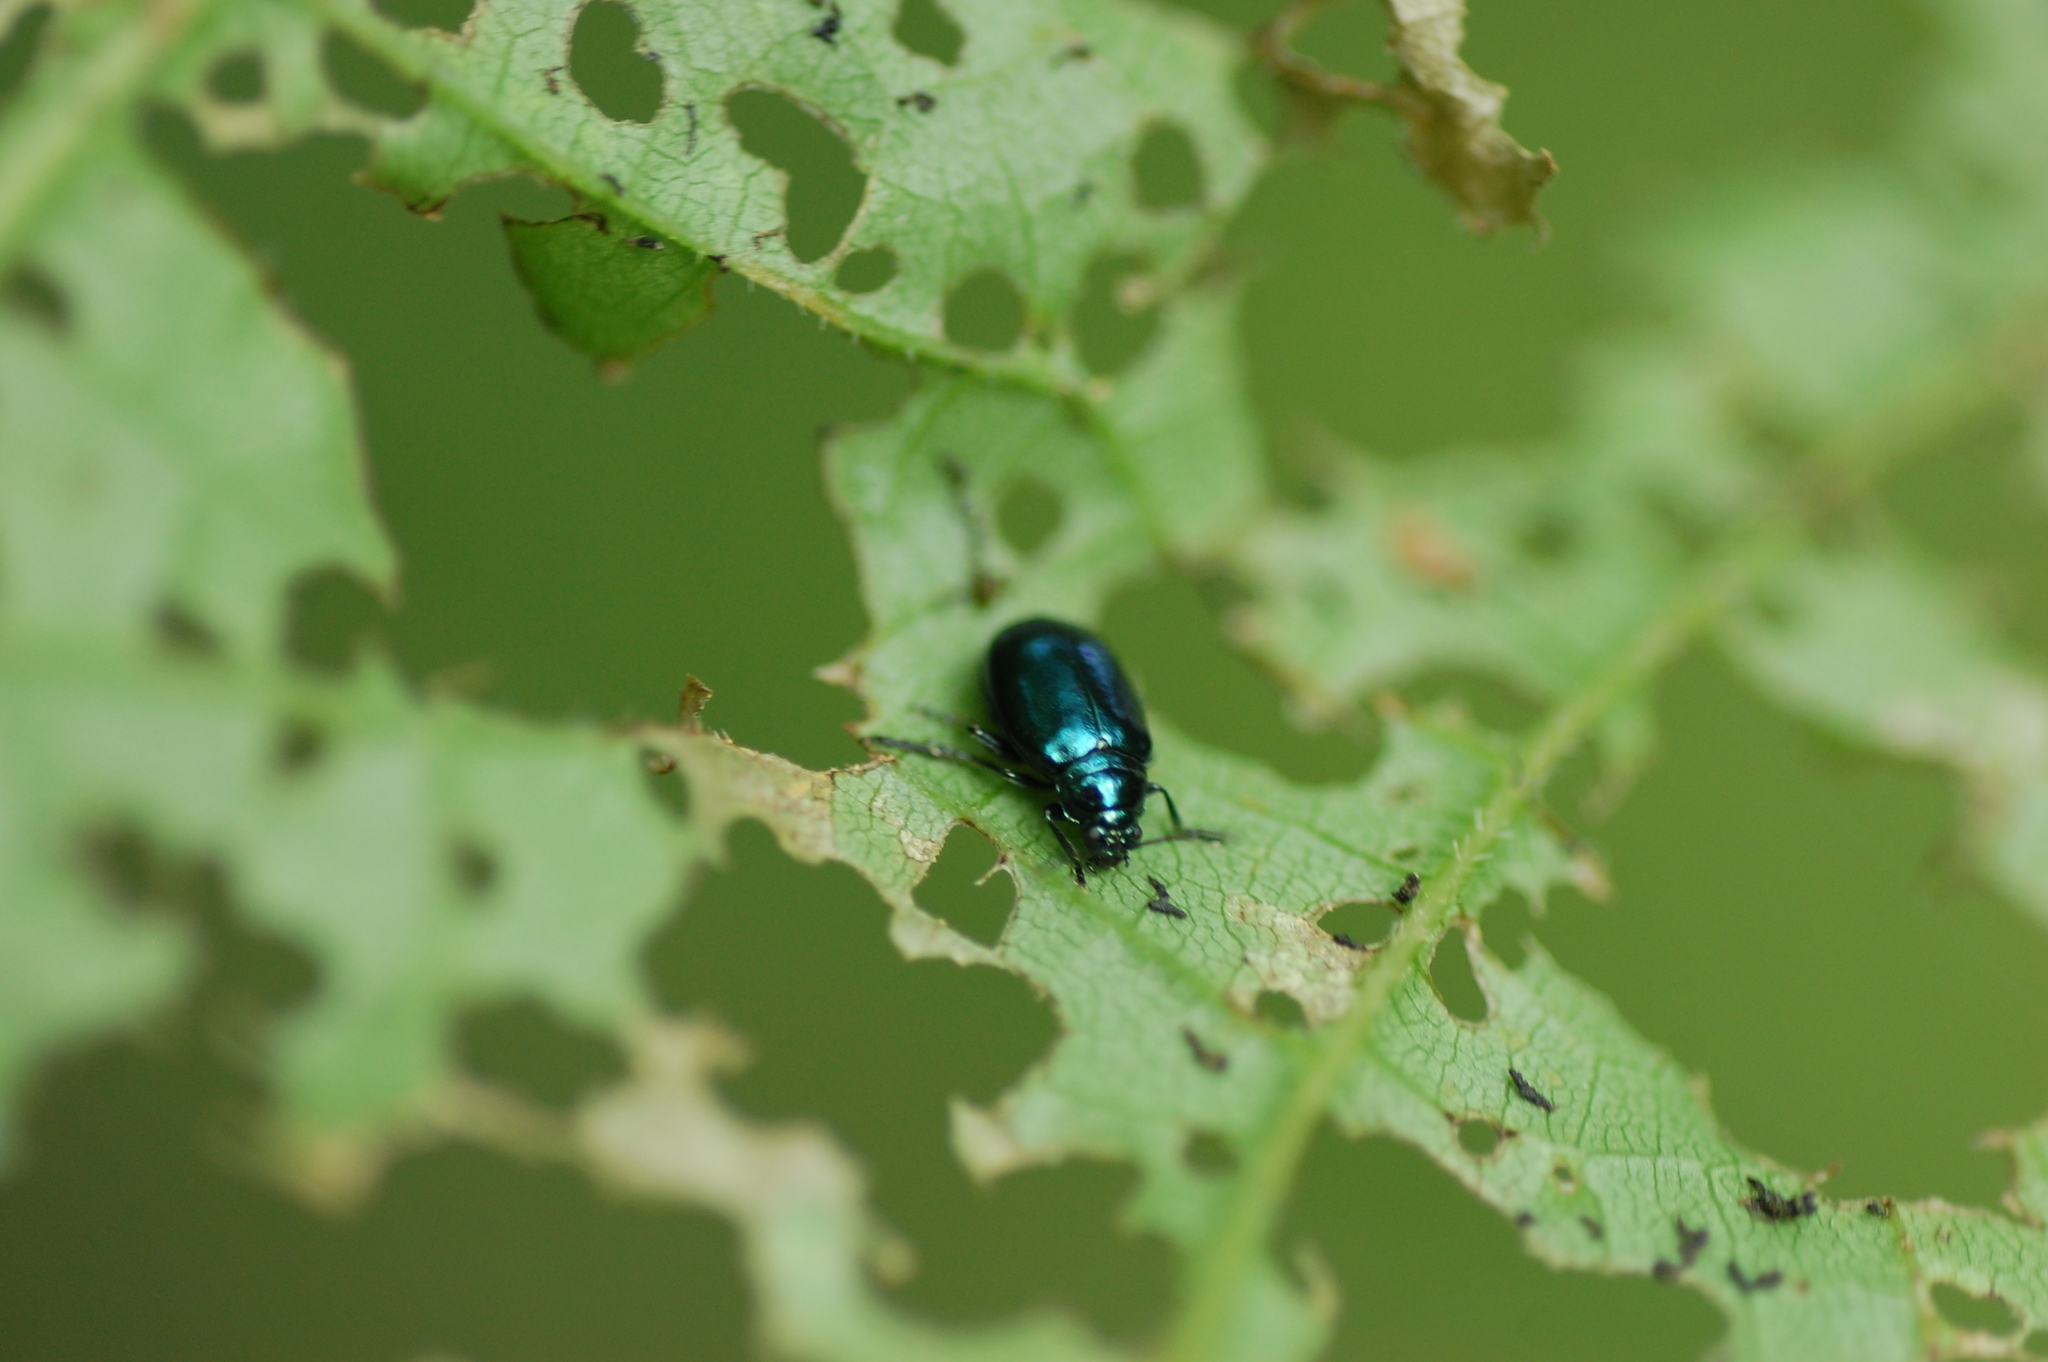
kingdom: Animalia
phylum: Arthropoda
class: Insecta
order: Coleoptera
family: Chrysomelidae
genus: Altica
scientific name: Altica chalybea
